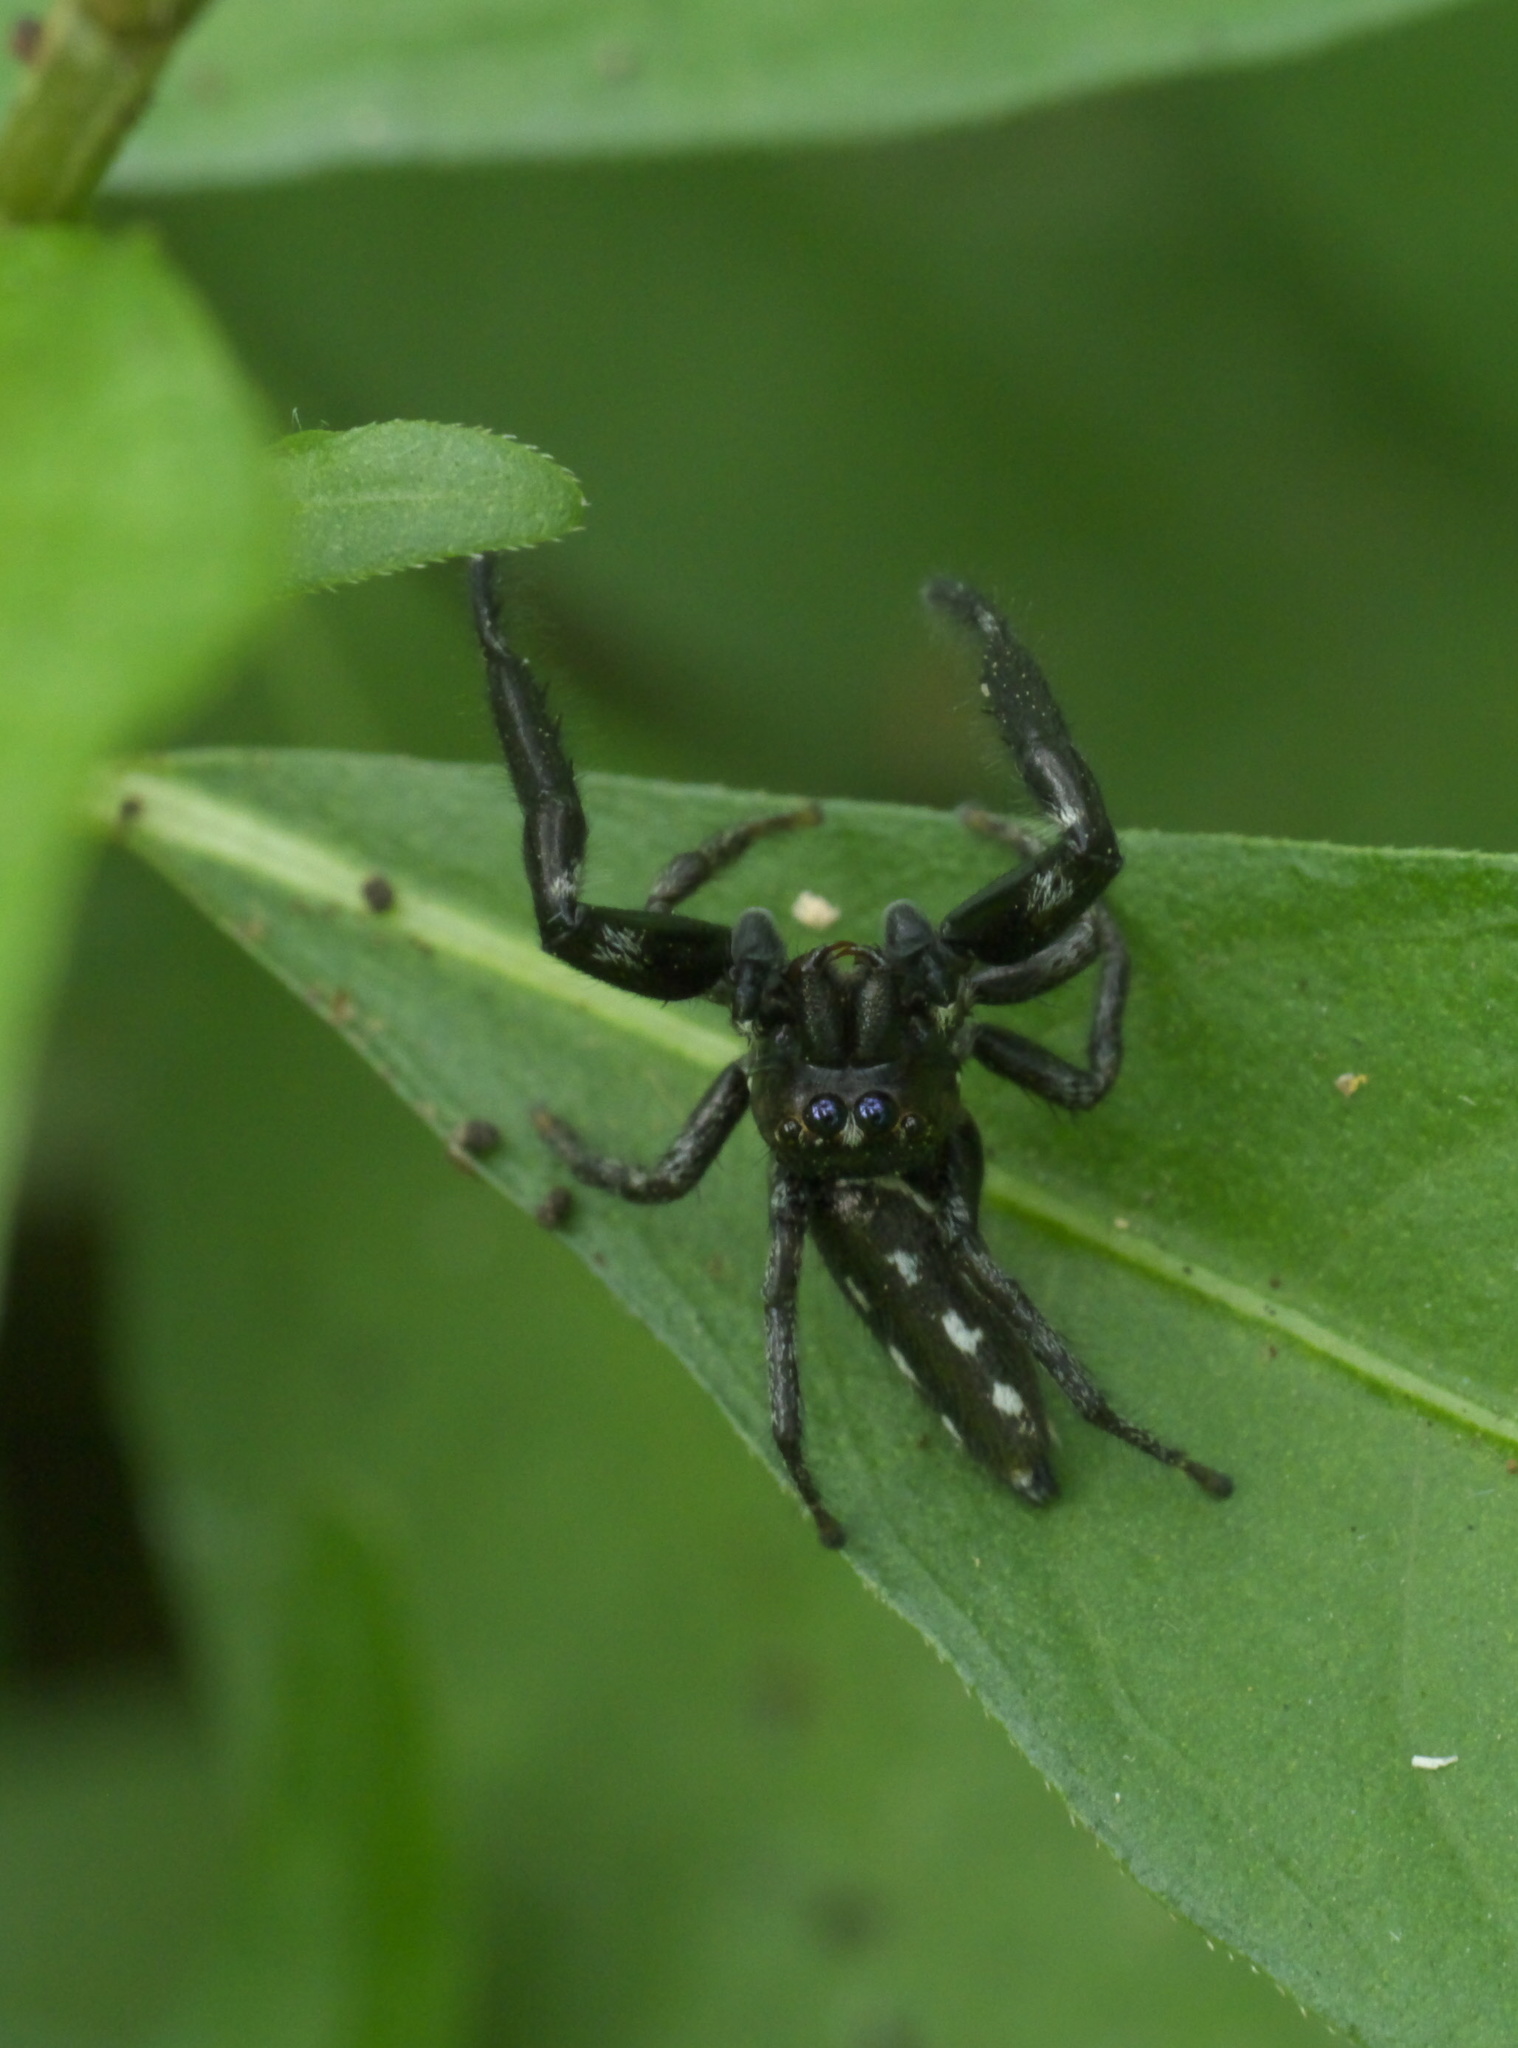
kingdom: Animalia
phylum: Arthropoda
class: Arachnida
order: Araneae
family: Salticidae
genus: Marpissa
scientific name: Marpissa formosa
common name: Short-bellied slender jumping spider
